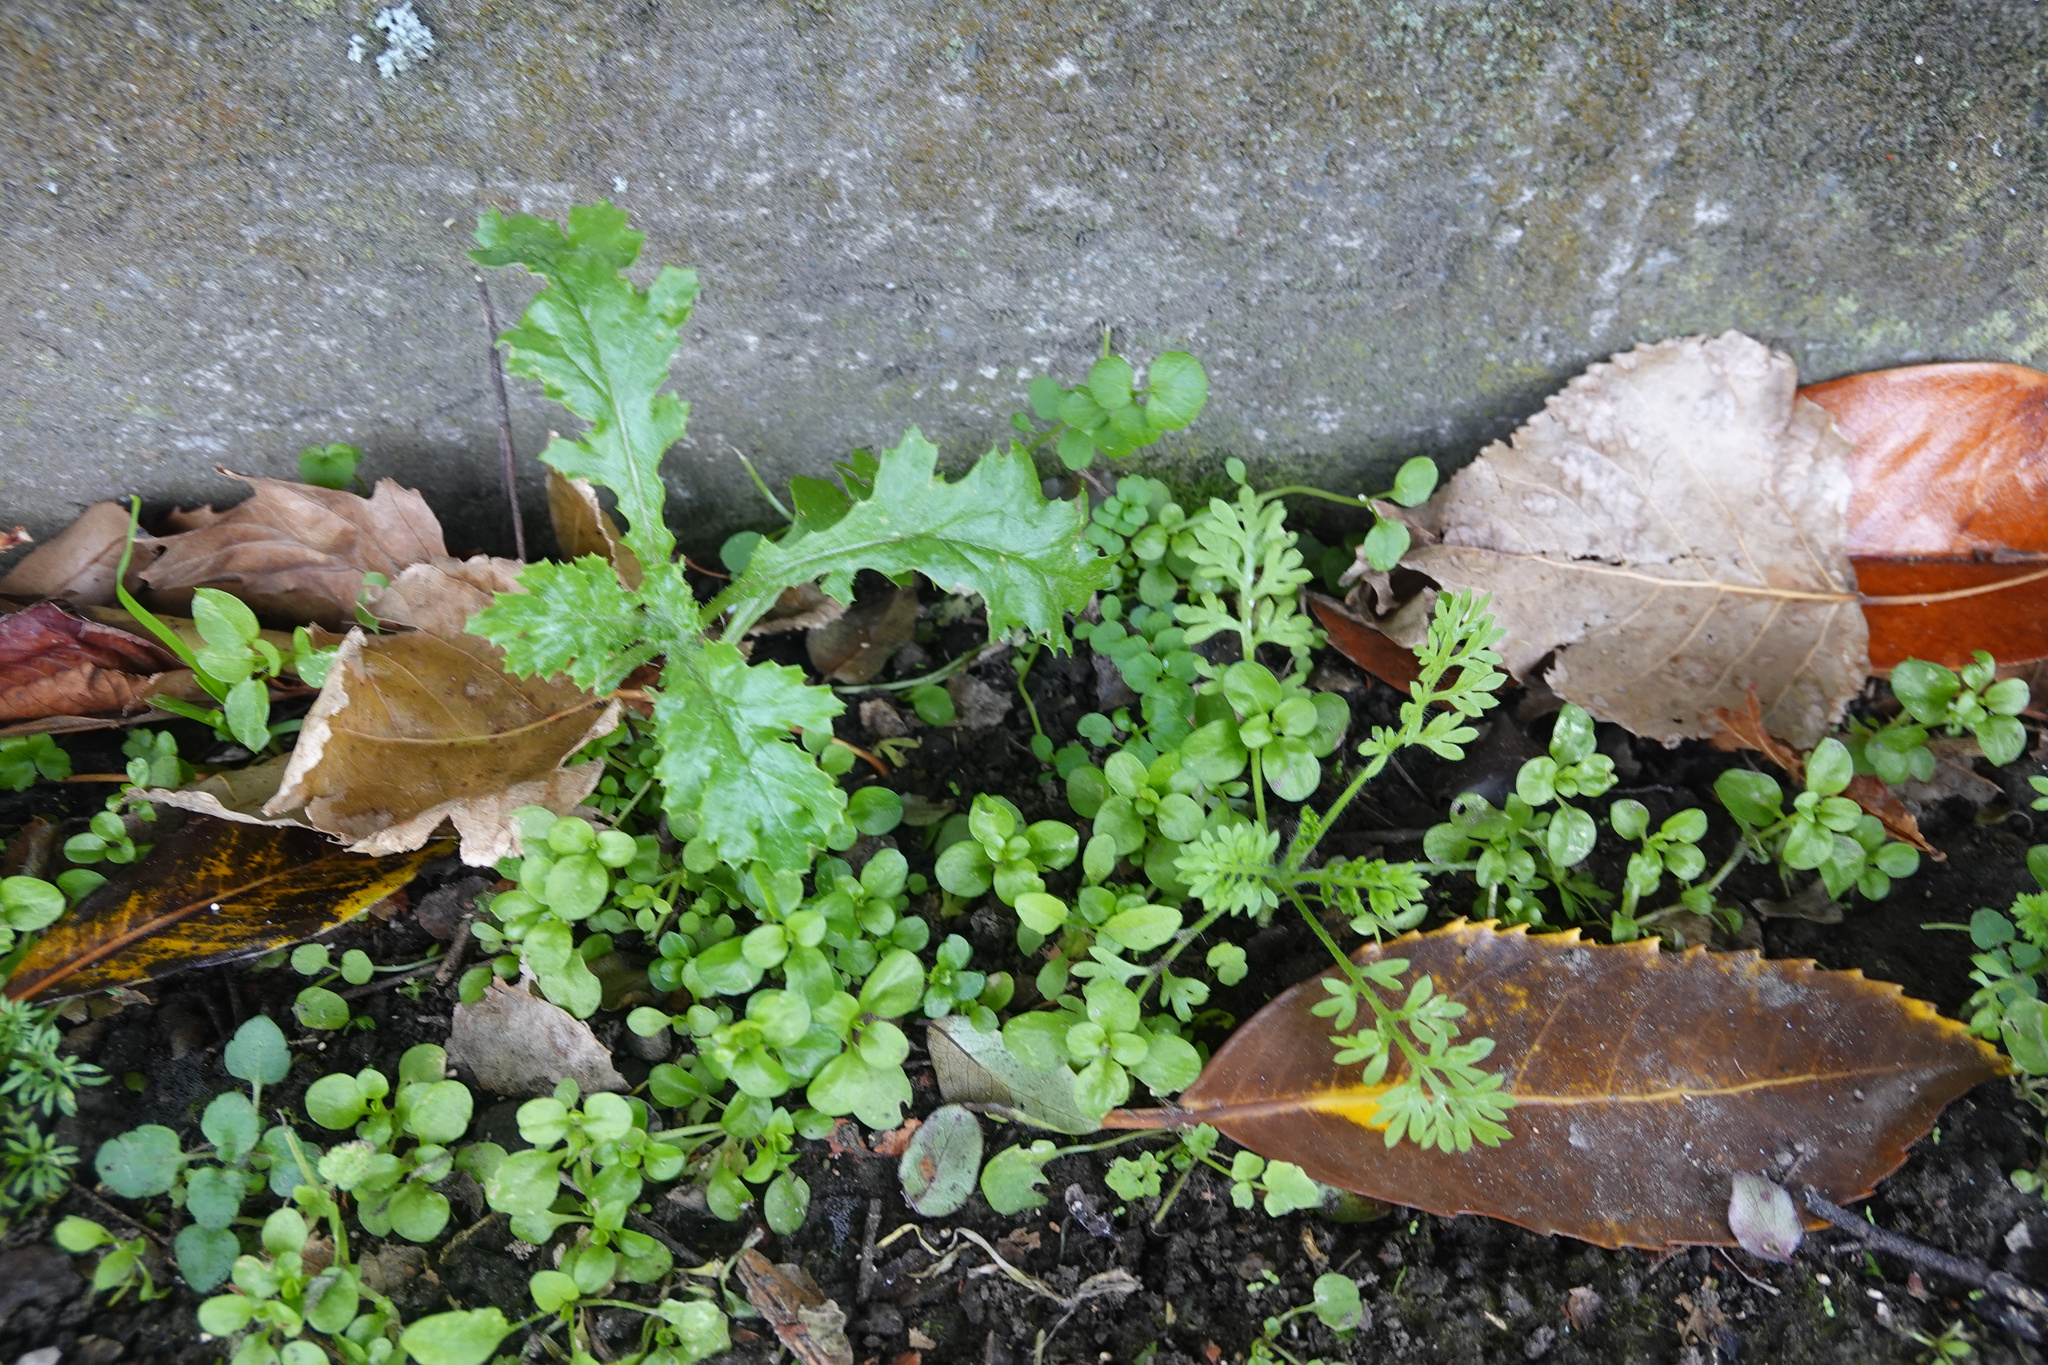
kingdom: Plantae
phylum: Tracheophyta
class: Magnoliopsida
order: Asterales
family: Asteraceae
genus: Senecio
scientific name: Senecio vulgaris
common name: Old-man-in-the-spring
